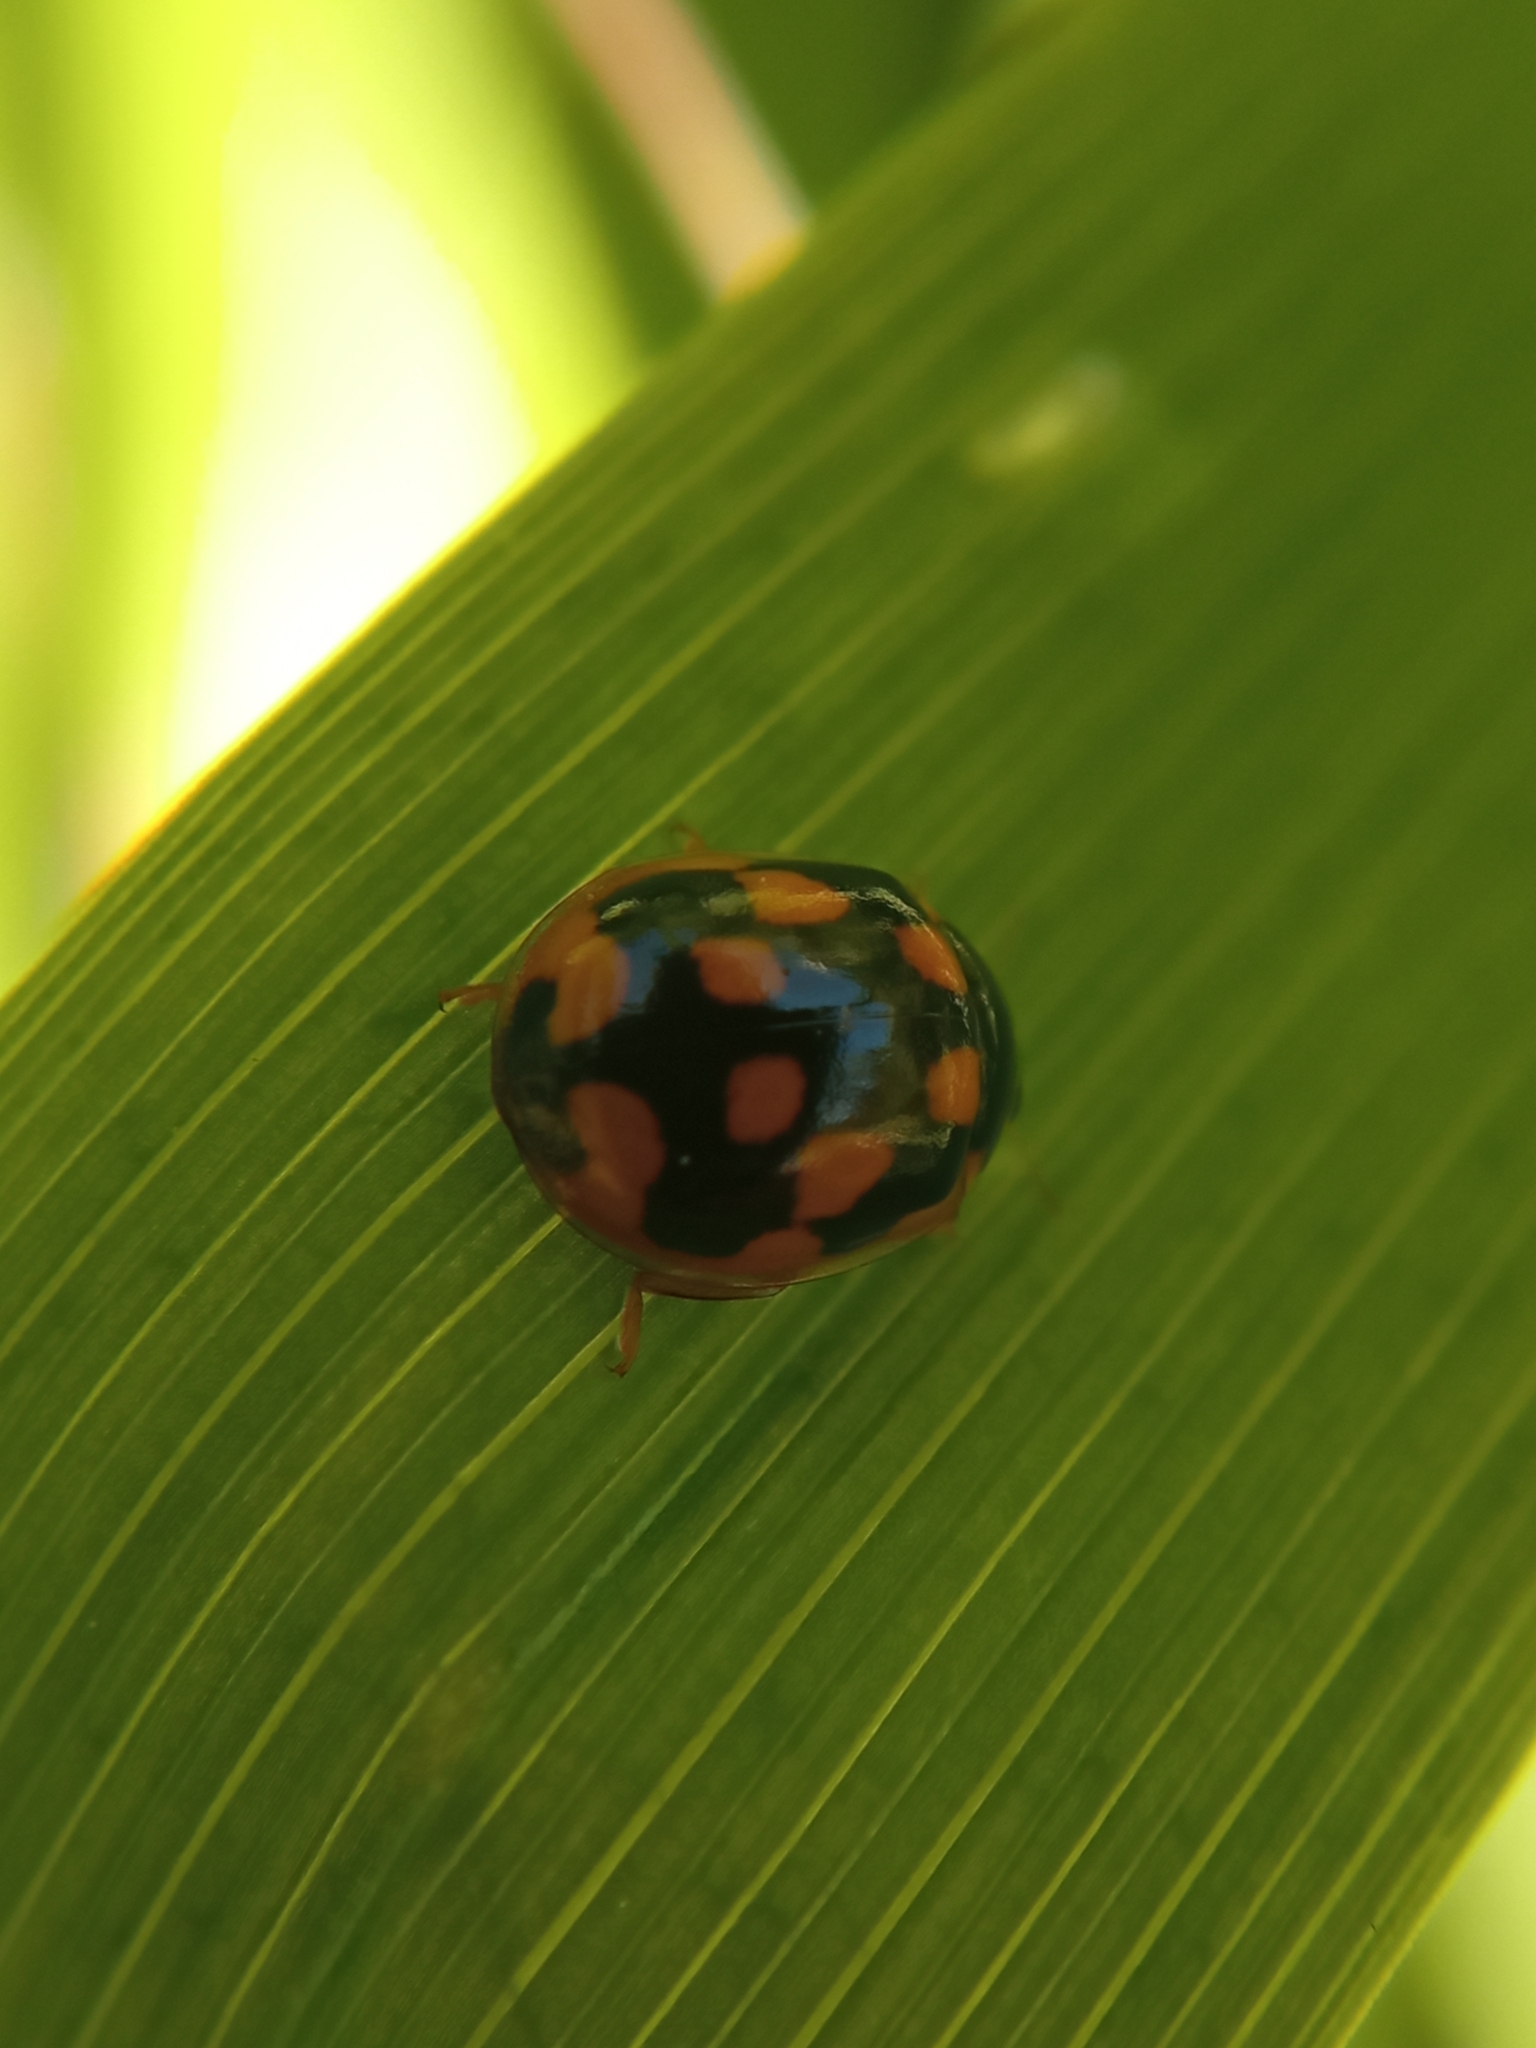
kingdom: Animalia
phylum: Arthropoda
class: Insecta
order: Coleoptera
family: Coccinellidae
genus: Propylaea
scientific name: Propylaea quatuordecimpunctata
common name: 14-spotted ladybird beetle
